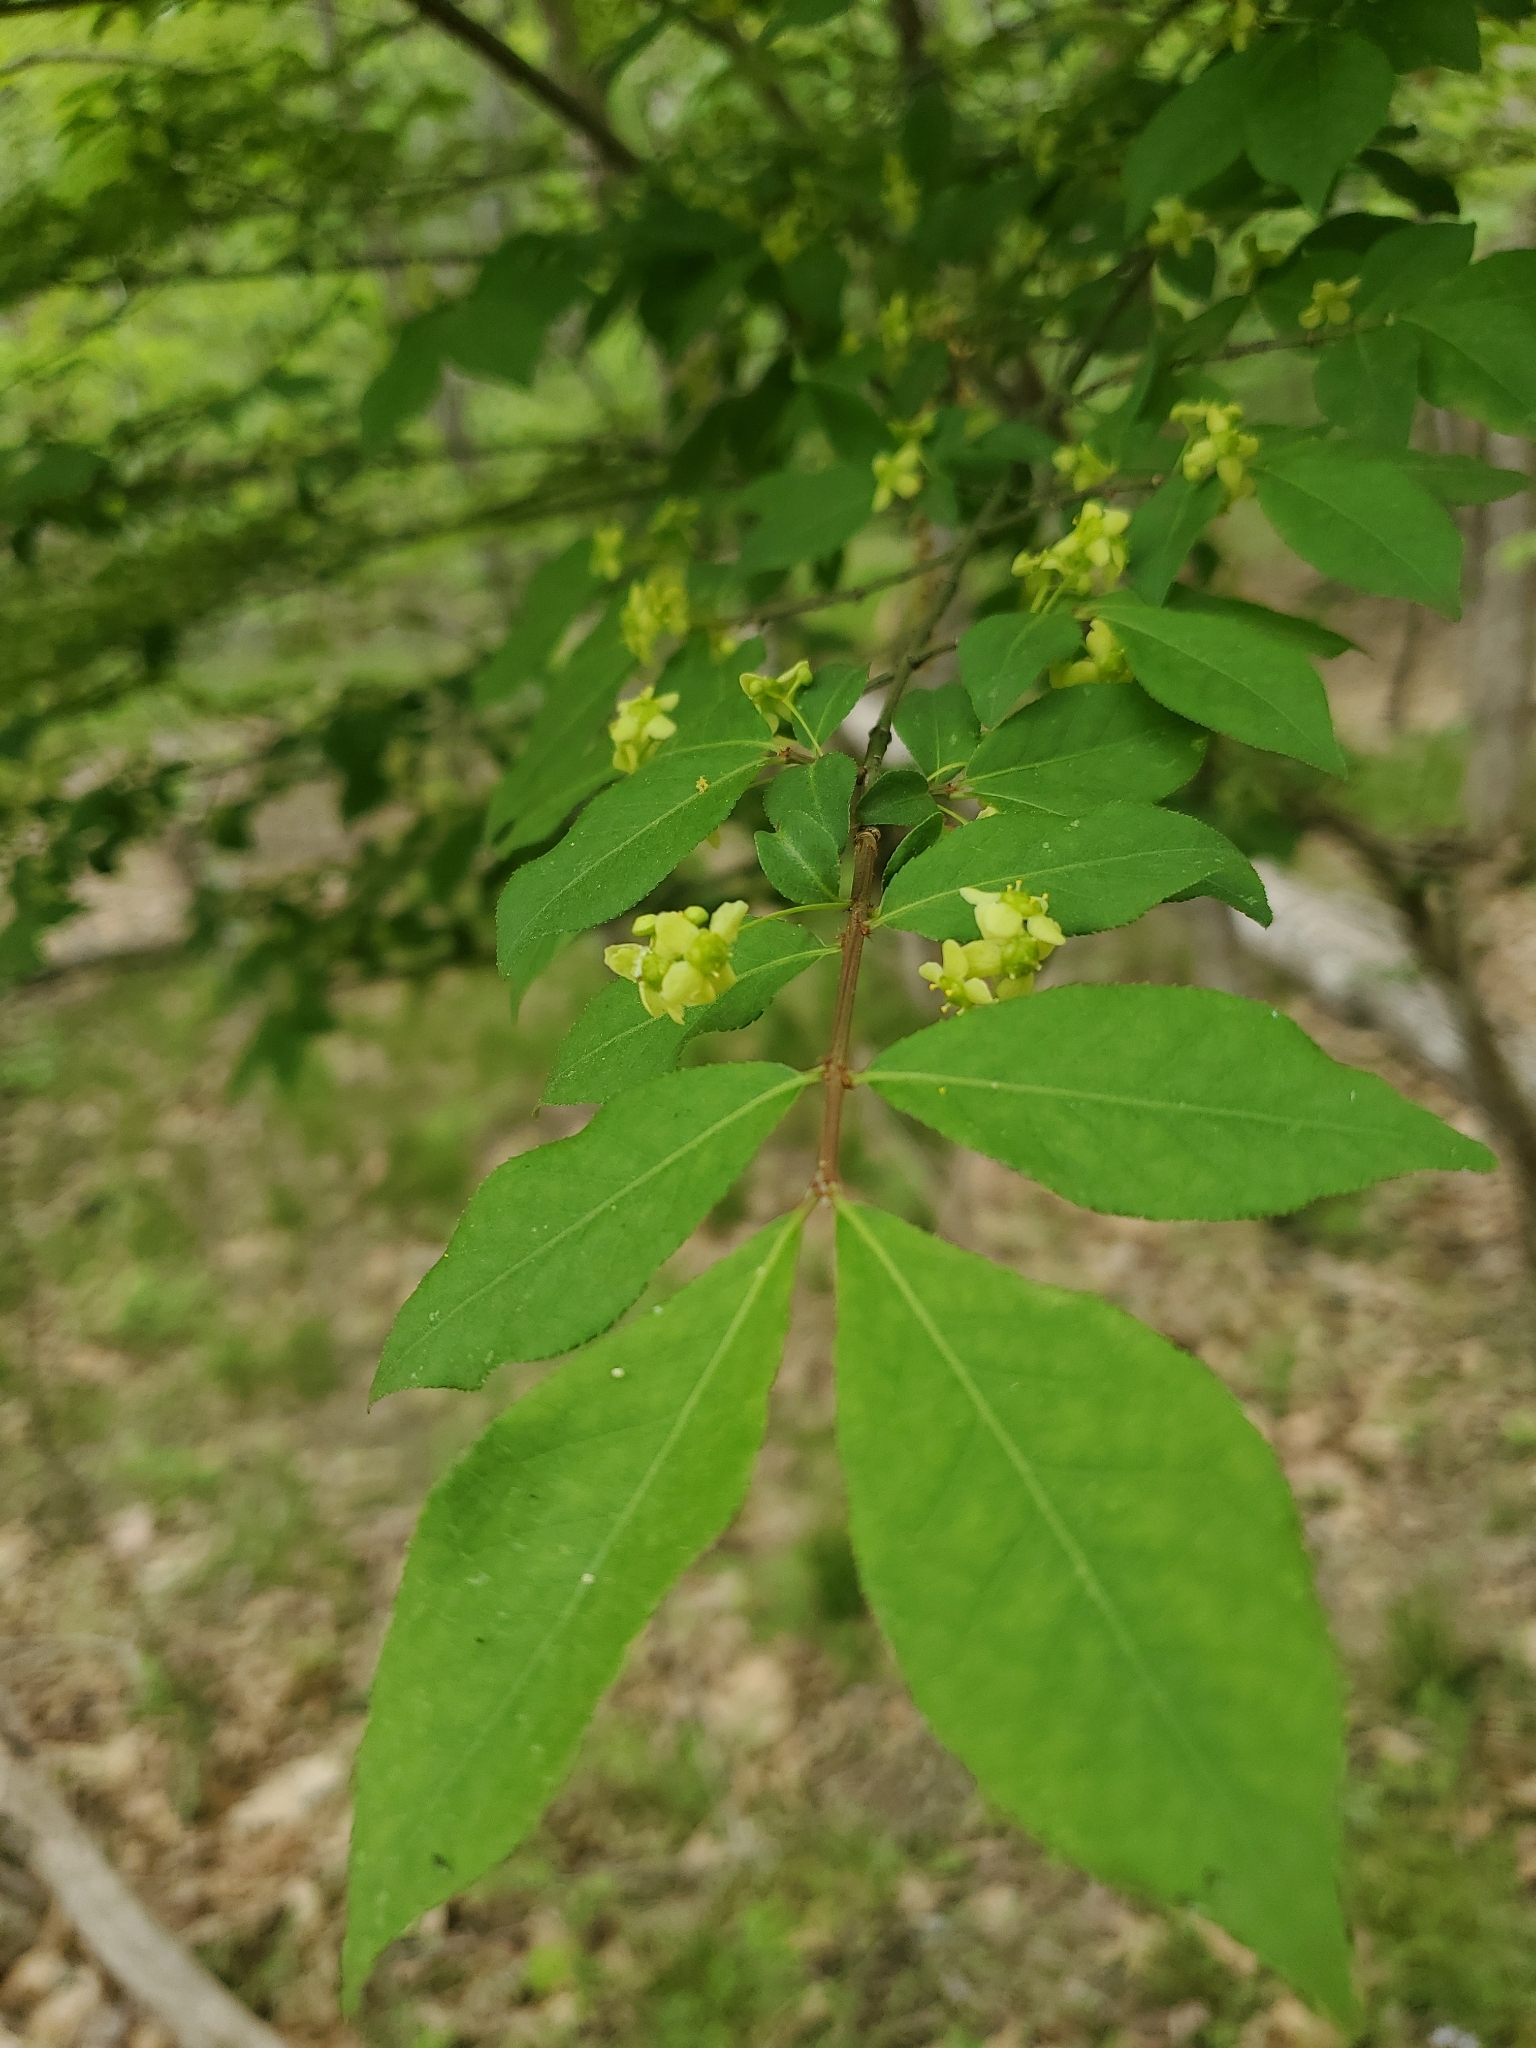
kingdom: Plantae
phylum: Tracheophyta
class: Magnoliopsida
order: Celastrales
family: Celastraceae
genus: Euonymus
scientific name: Euonymus alatus
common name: Winged euonymus
